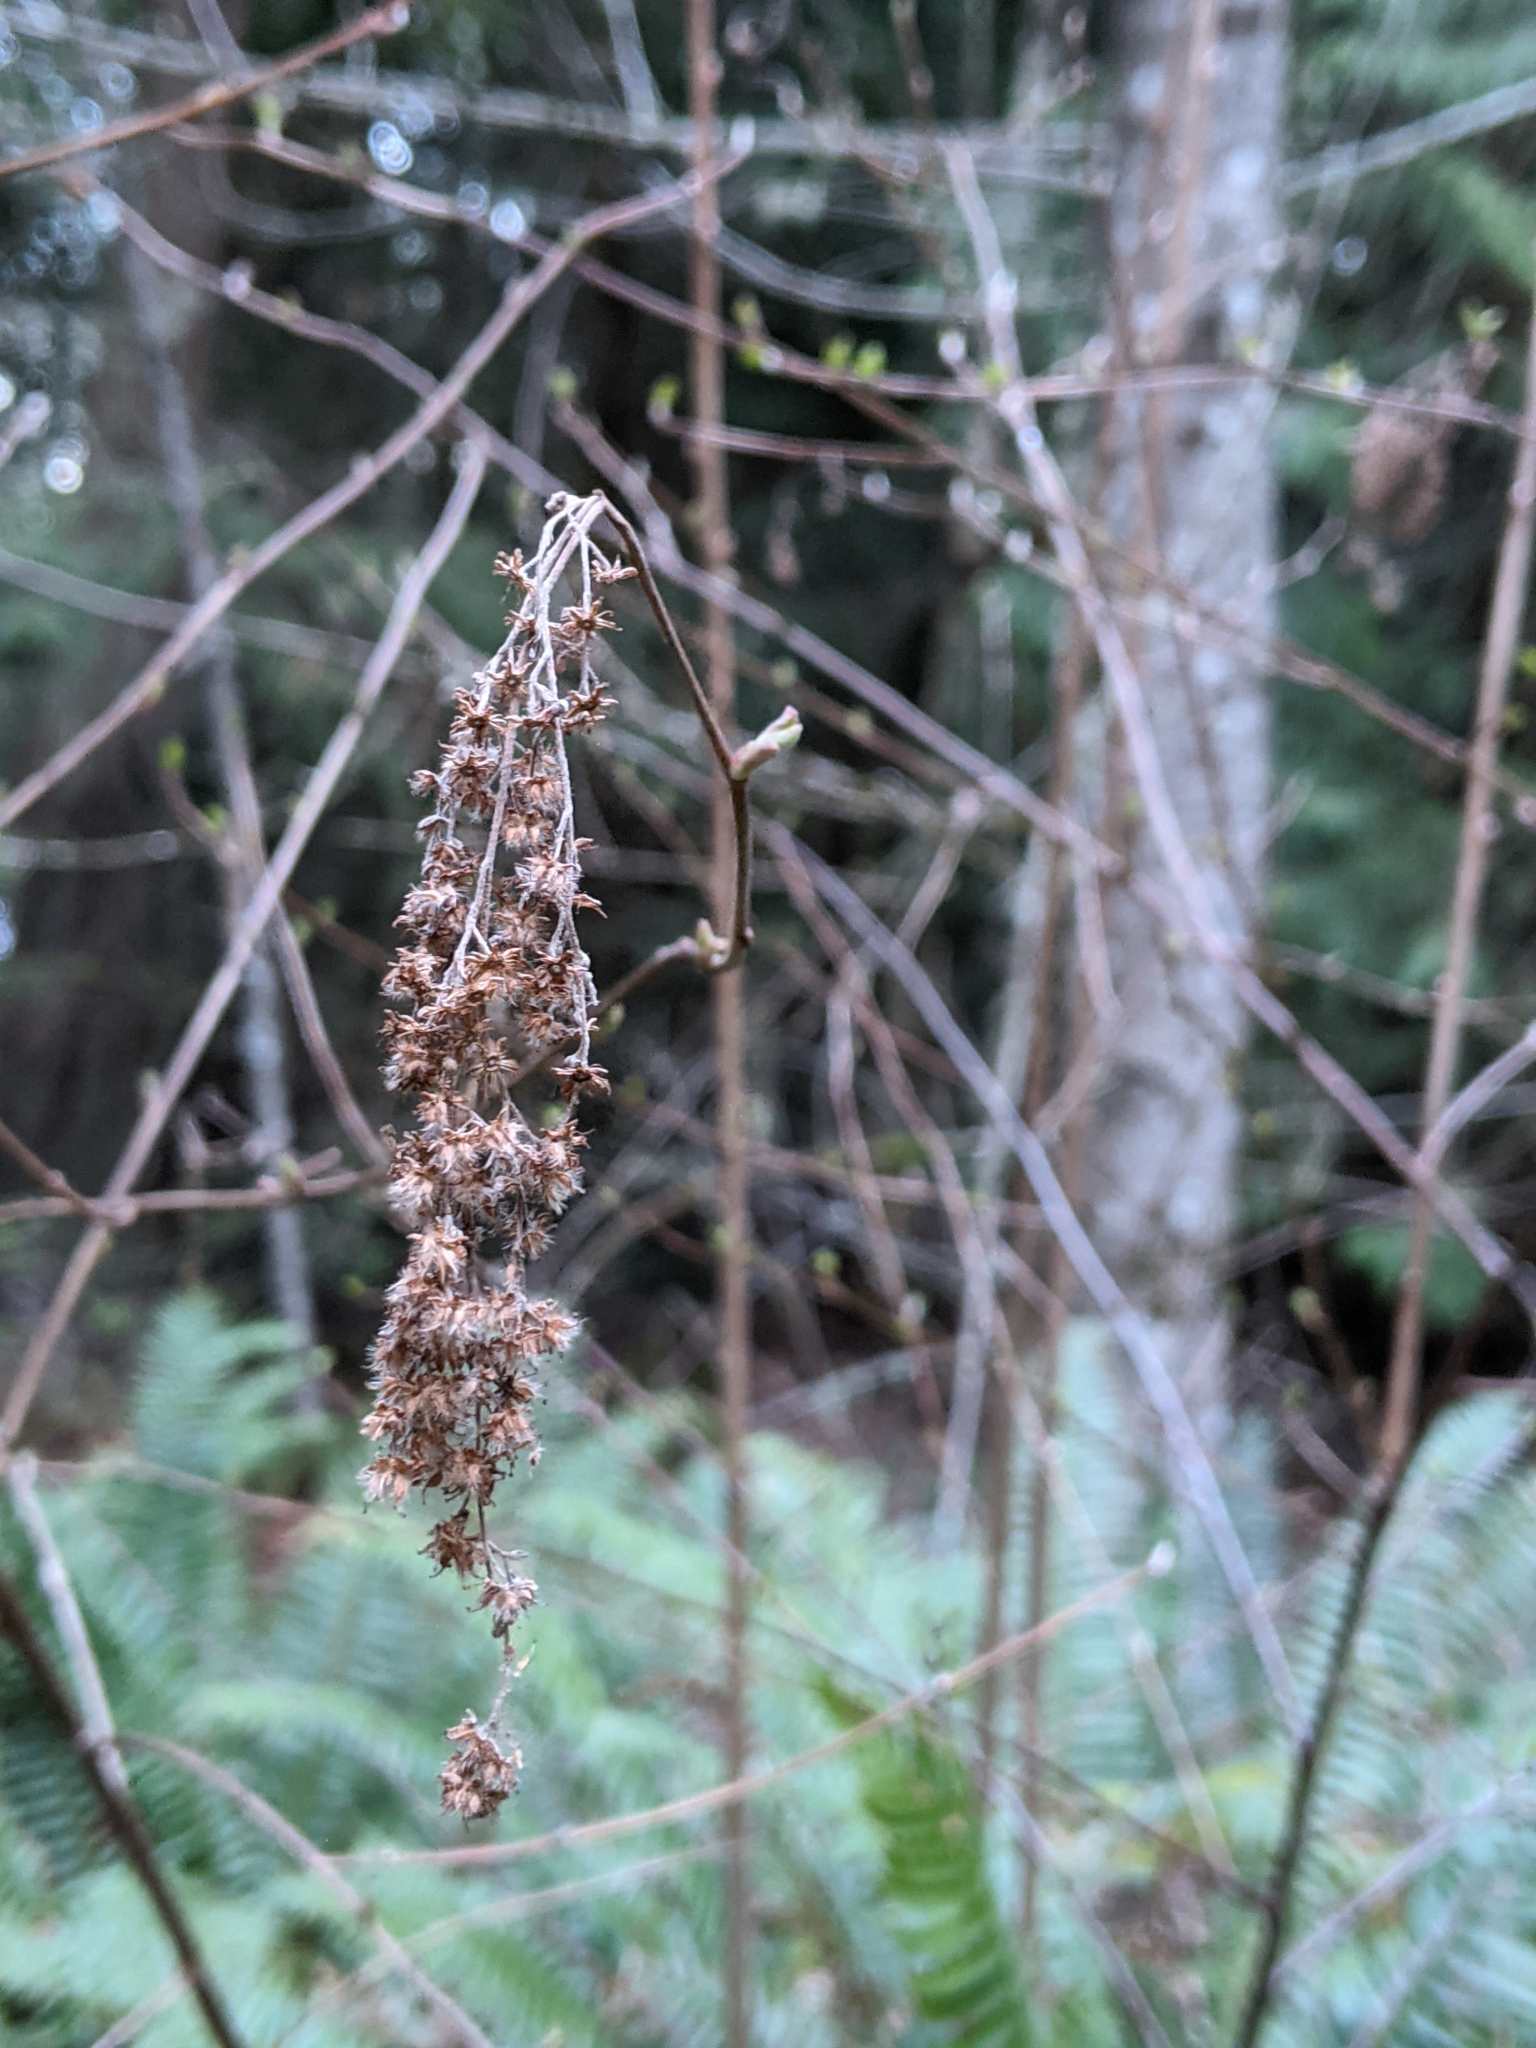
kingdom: Plantae
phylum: Tracheophyta
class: Magnoliopsida
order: Rosales
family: Rosaceae
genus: Holodiscus
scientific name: Holodiscus discolor
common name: Oceanspray
